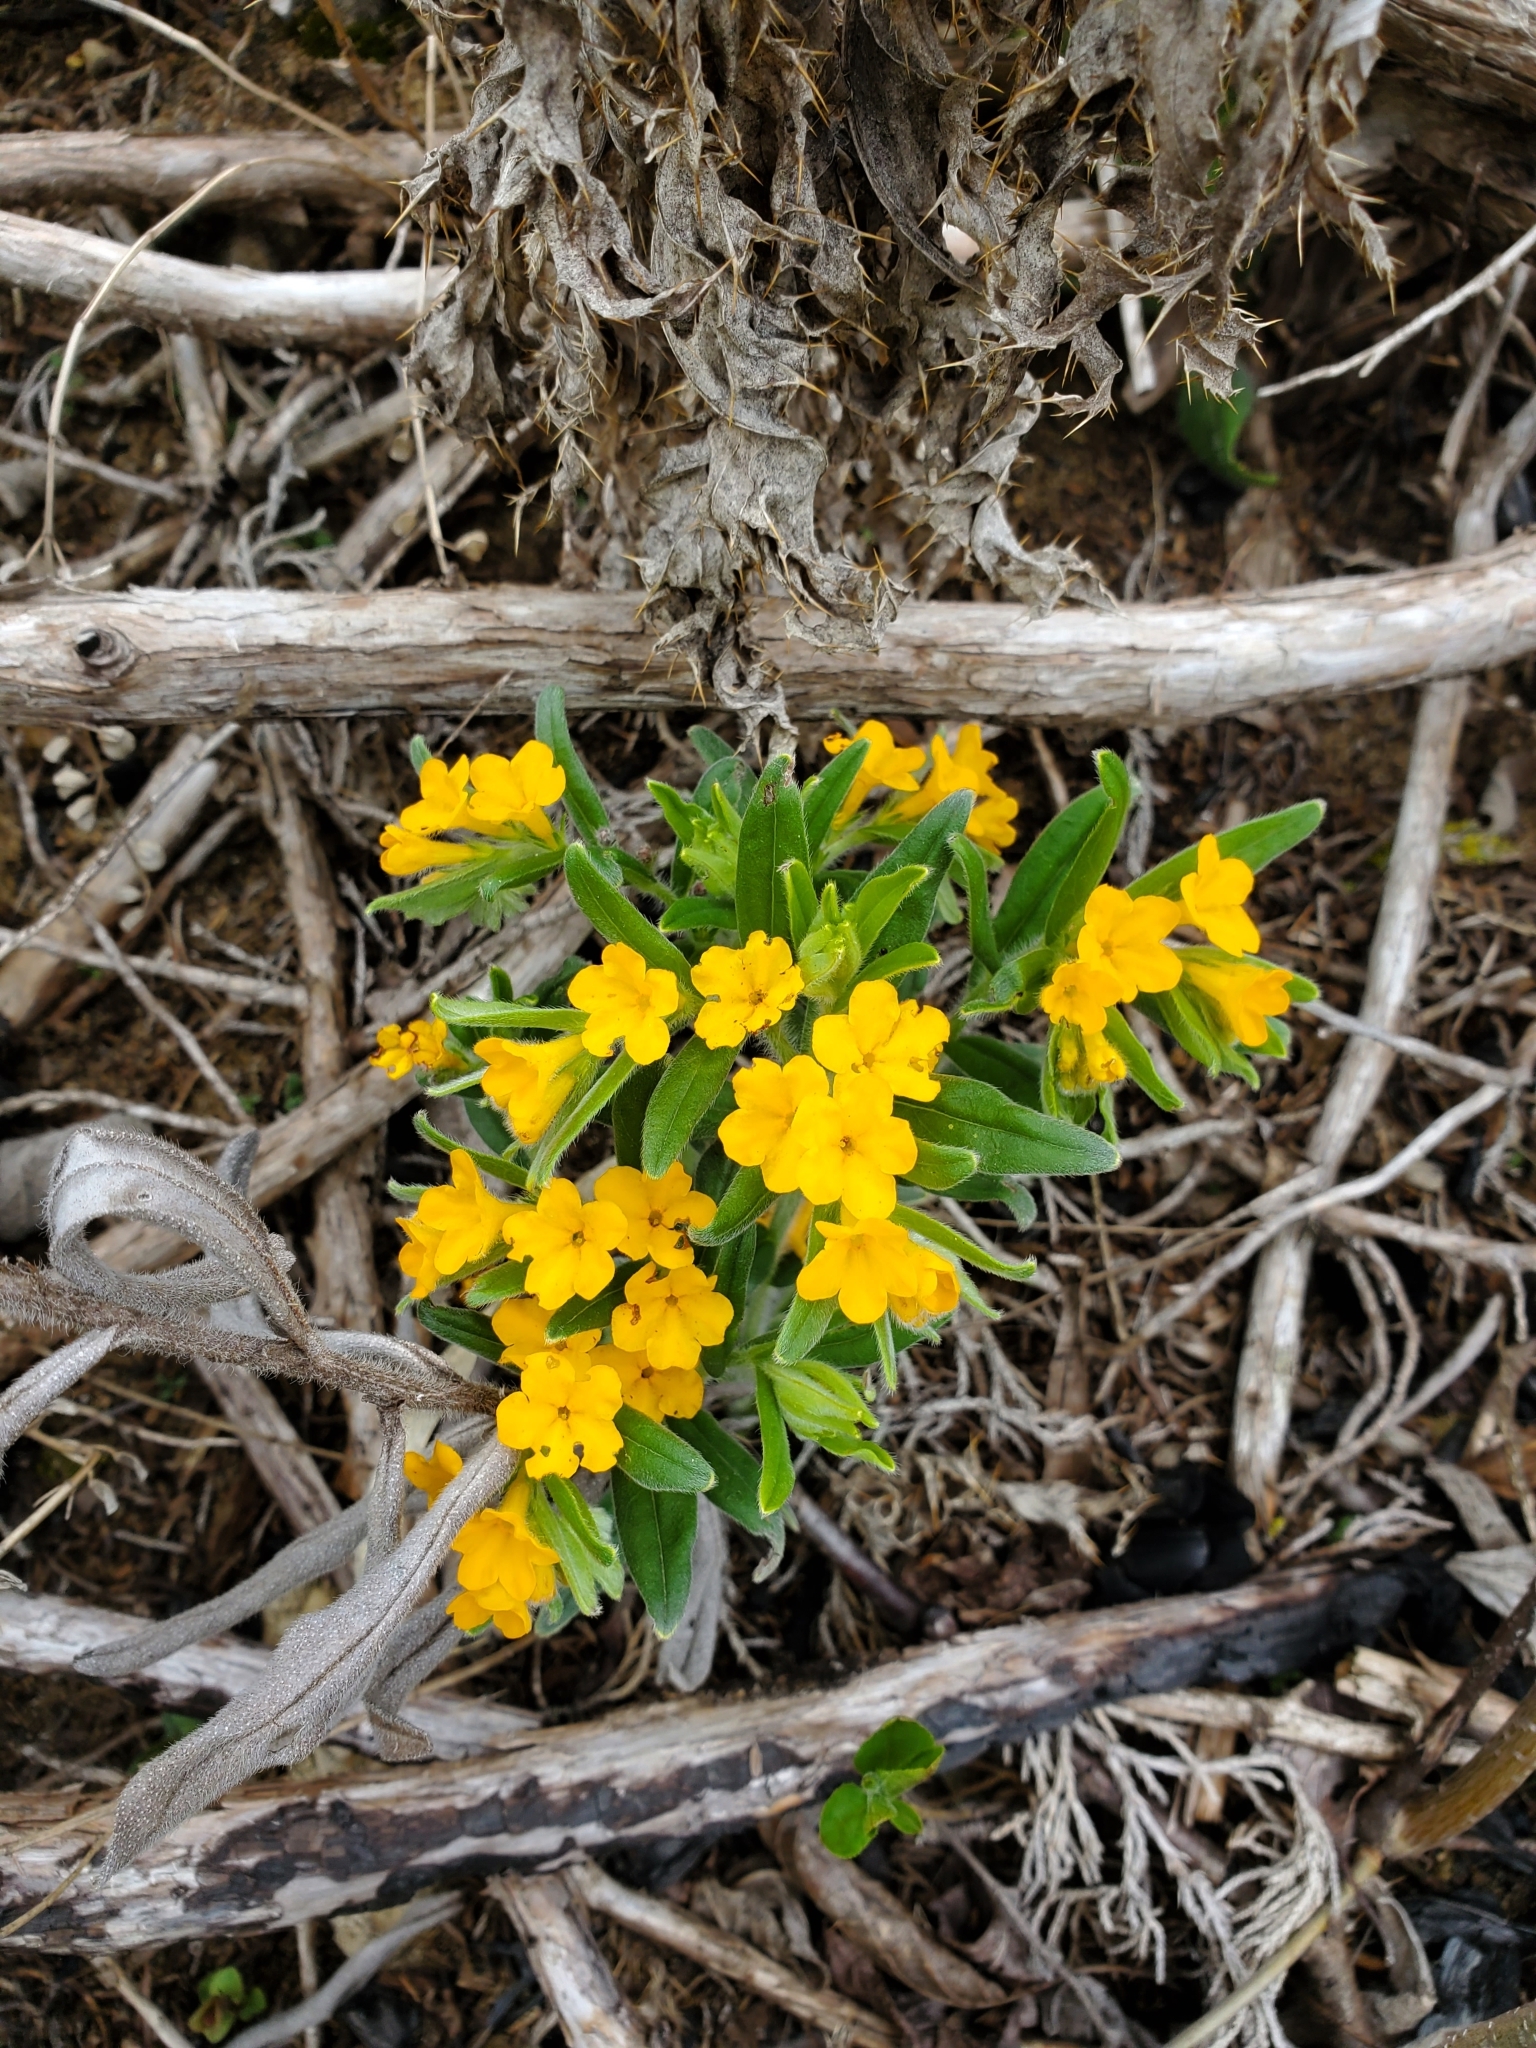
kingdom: Plantae
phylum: Tracheophyta
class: Magnoliopsida
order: Boraginales
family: Boraginaceae
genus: Lithospermum
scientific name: Lithospermum canescens
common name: Hoary puccoon
